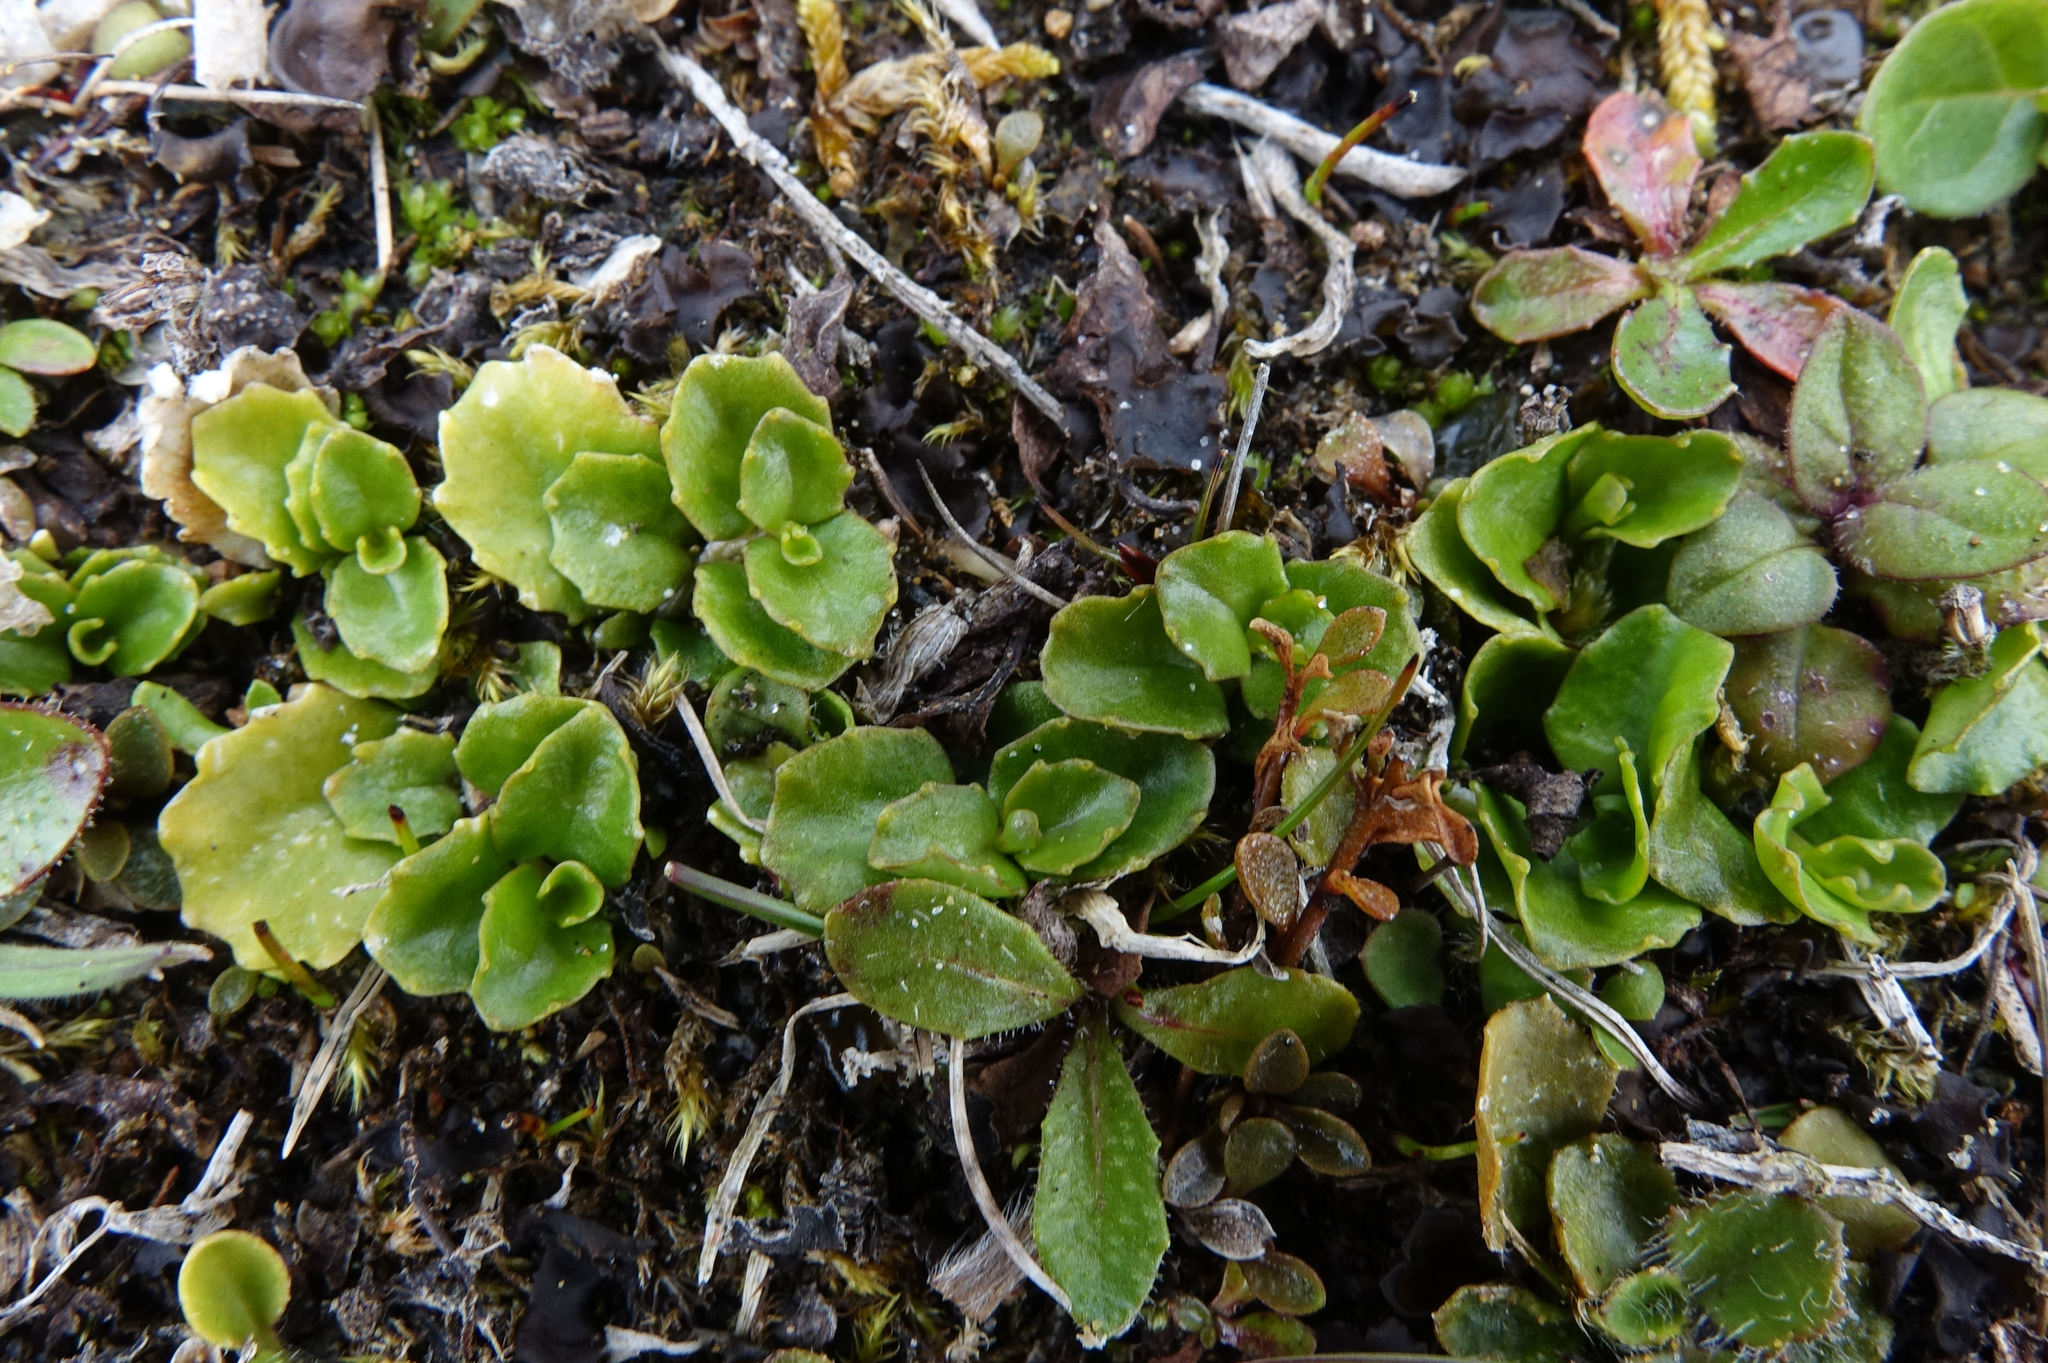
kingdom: Plantae
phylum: Tracheophyta
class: Magnoliopsida
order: Asterales
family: Campanulaceae
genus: Lobelia
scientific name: Lobelia arenaria
